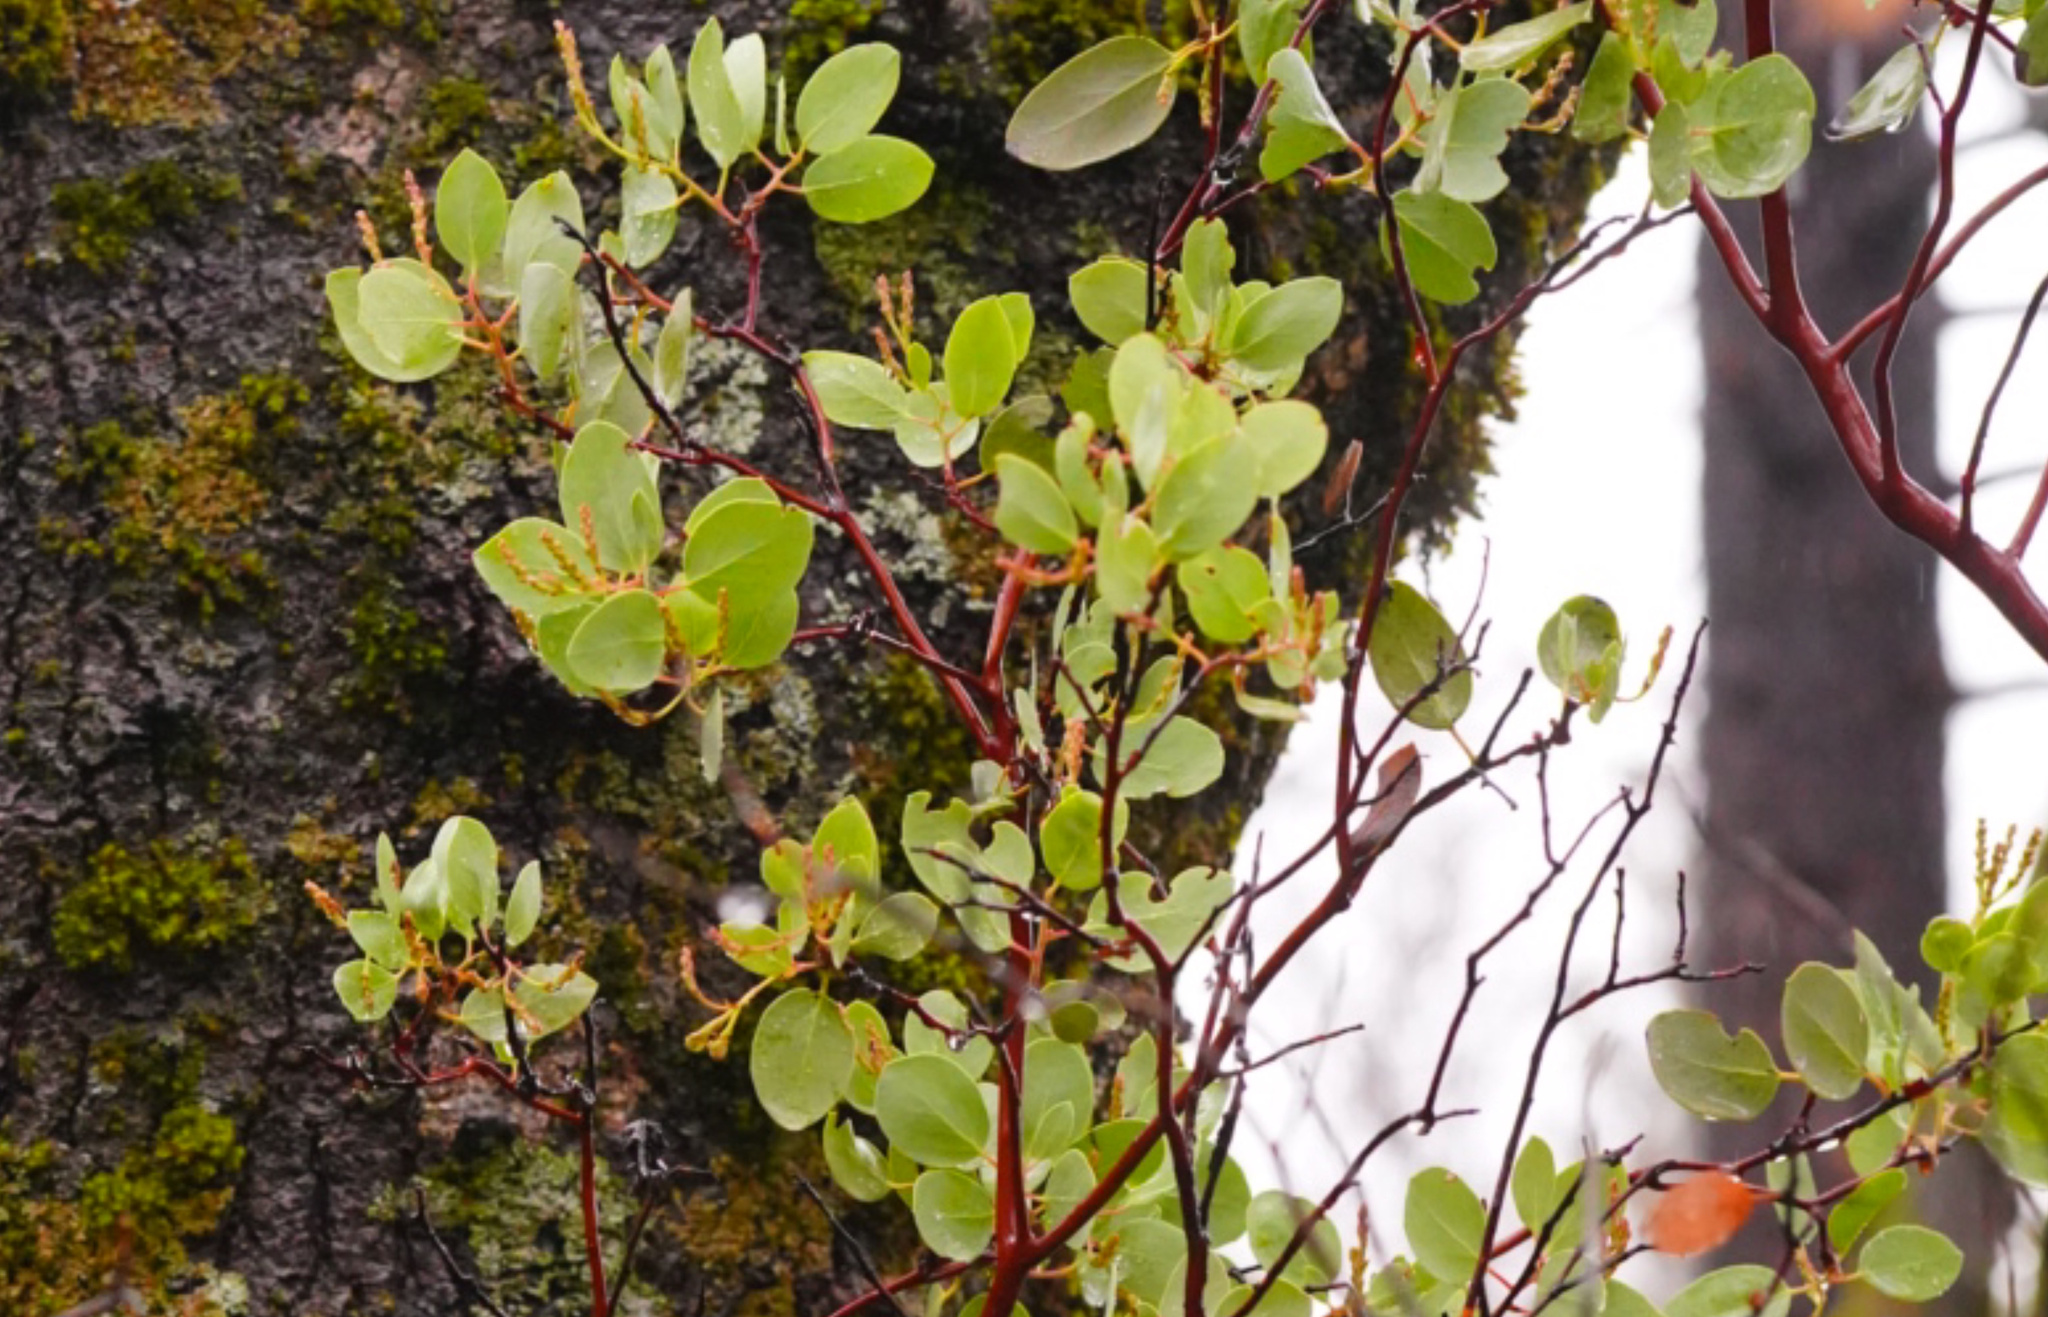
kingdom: Plantae
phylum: Tracheophyta
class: Magnoliopsida
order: Ericales
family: Ericaceae
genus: Arctostaphylos
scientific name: Arctostaphylos viscida
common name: White-leaf manzanita
